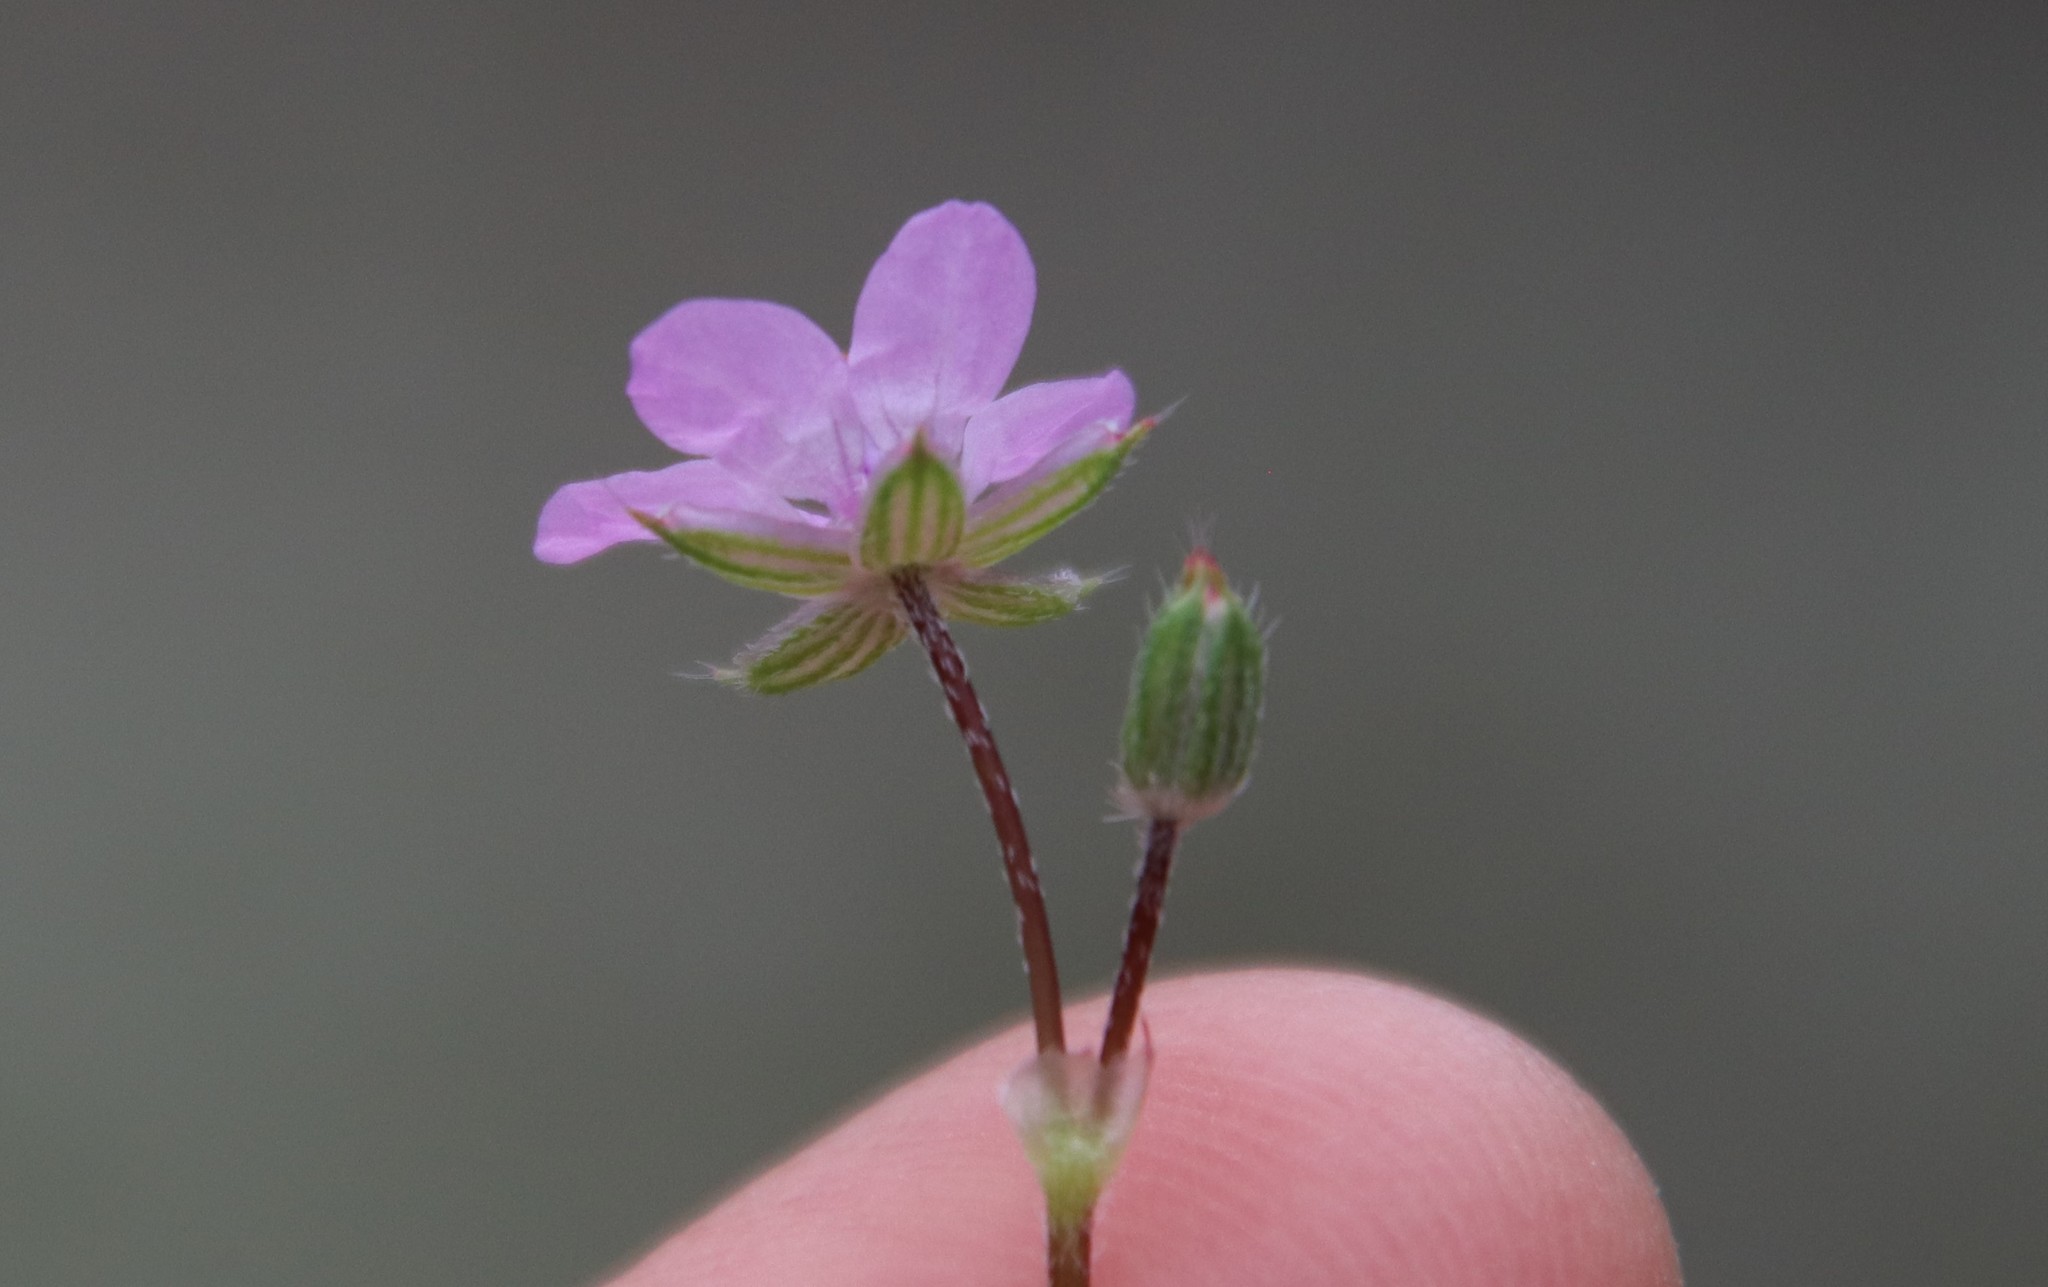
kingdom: Plantae
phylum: Tracheophyta
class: Magnoliopsida
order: Geraniales
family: Geraniaceae
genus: Erodium
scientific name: Erodium cicutarium
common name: Common stork's-bill
